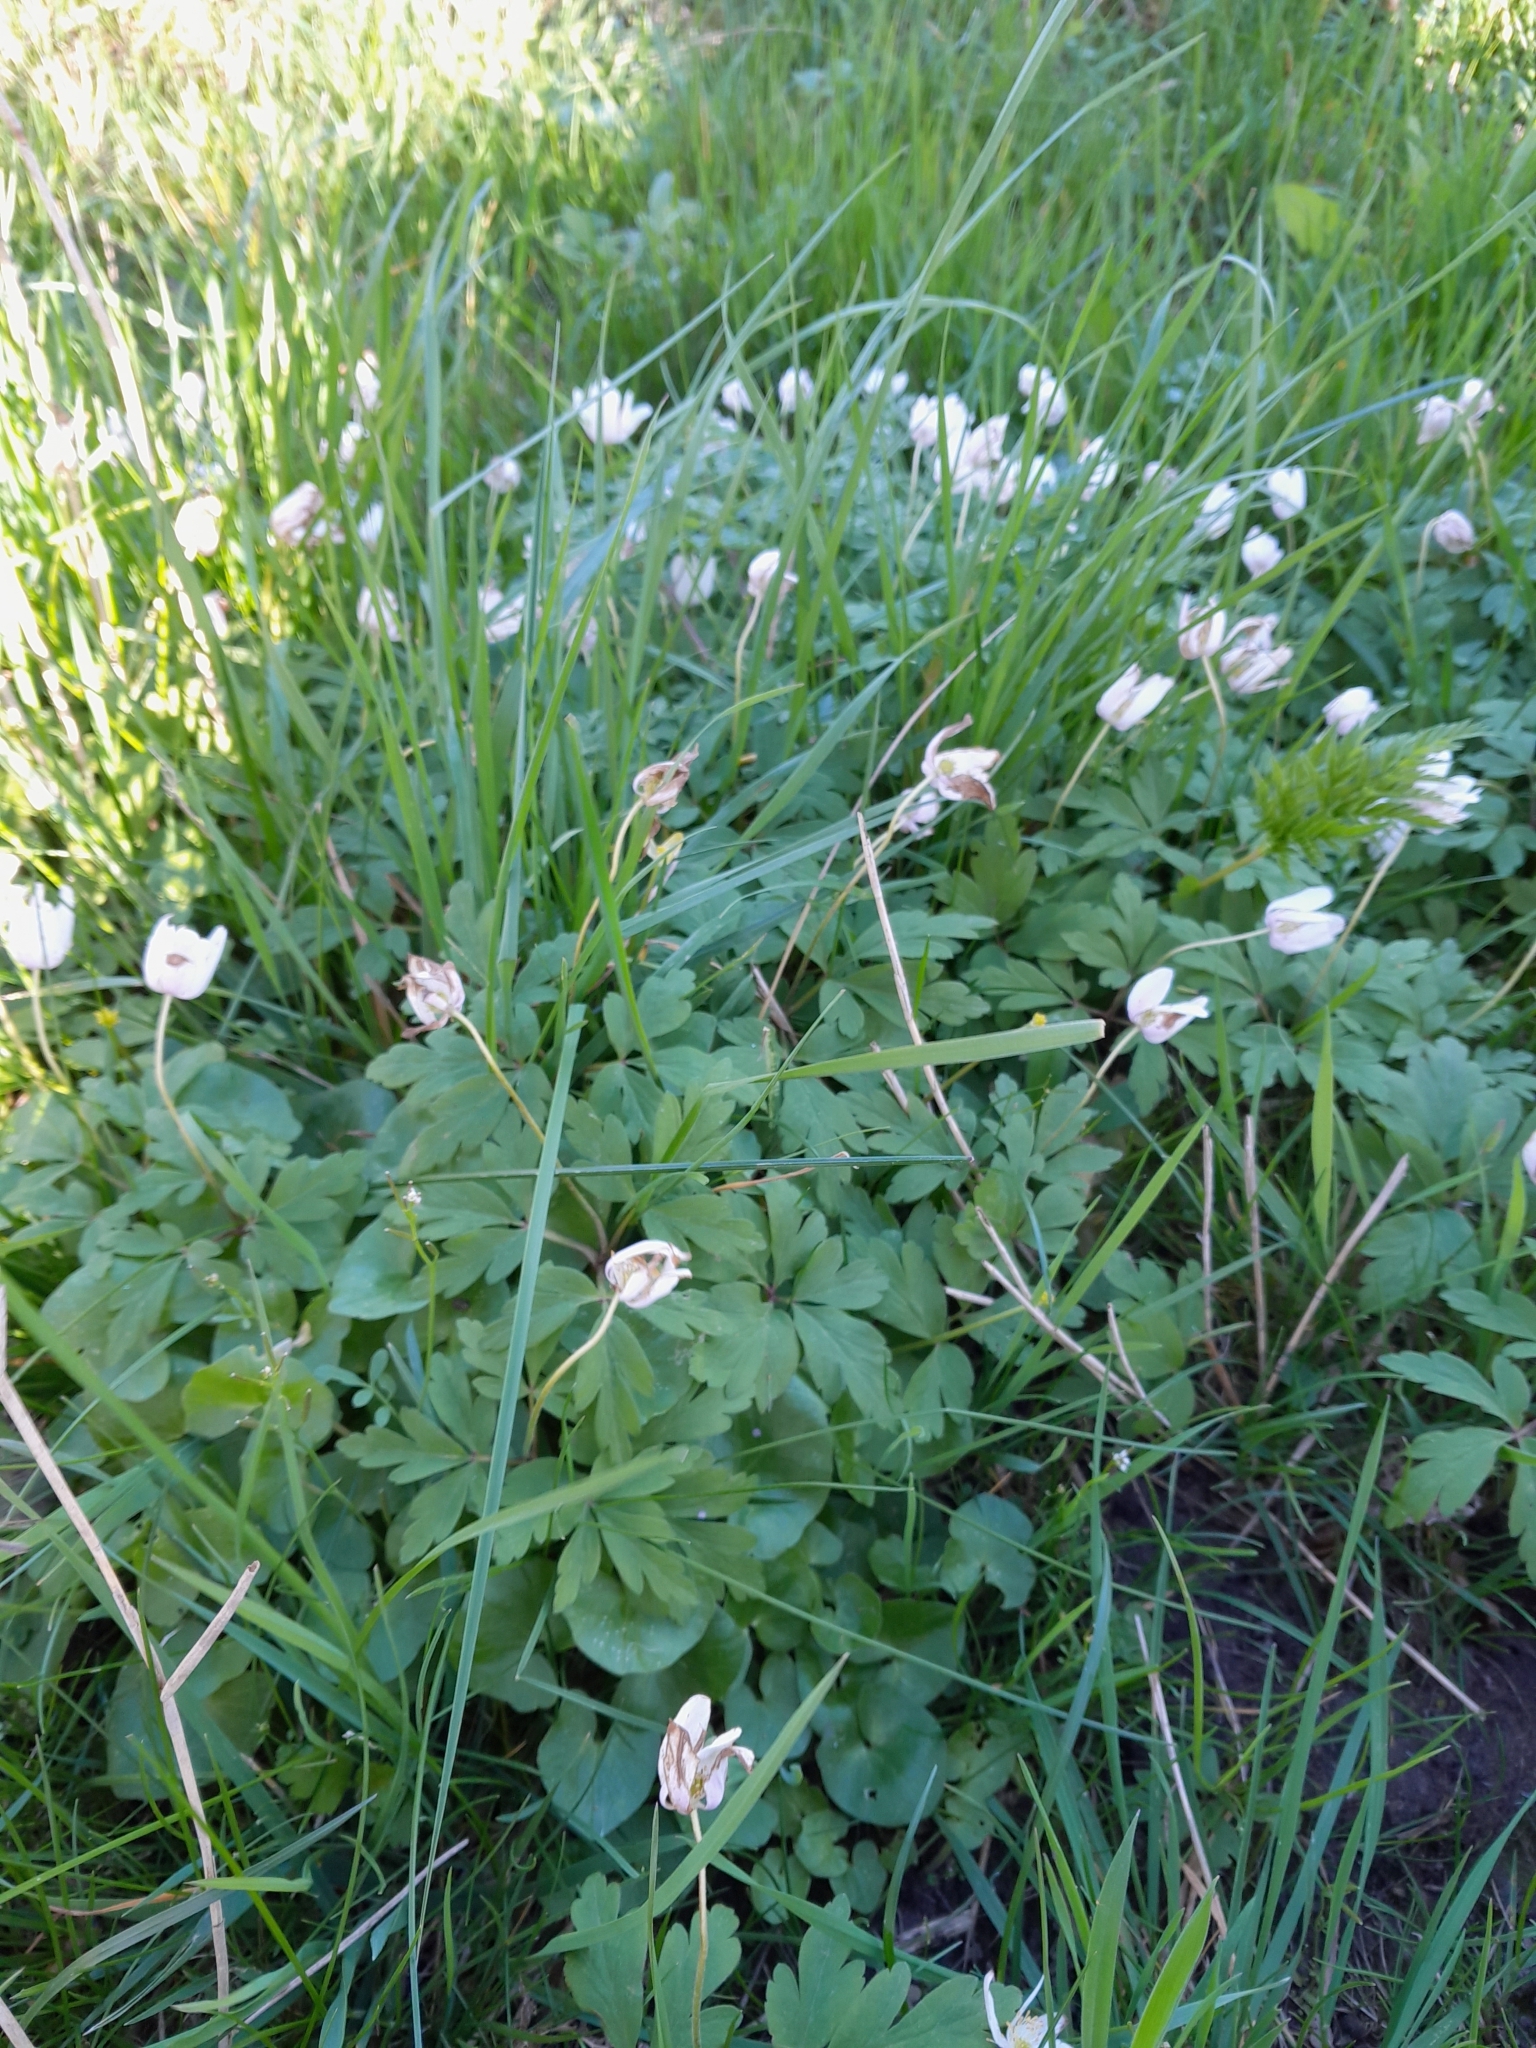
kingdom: Plantae
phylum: Tracheophyta
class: Magnoliopsida
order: Ranunculales
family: Ranunculaceae
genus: Anemone
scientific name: Anemone nemorosa
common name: Wood anemone
